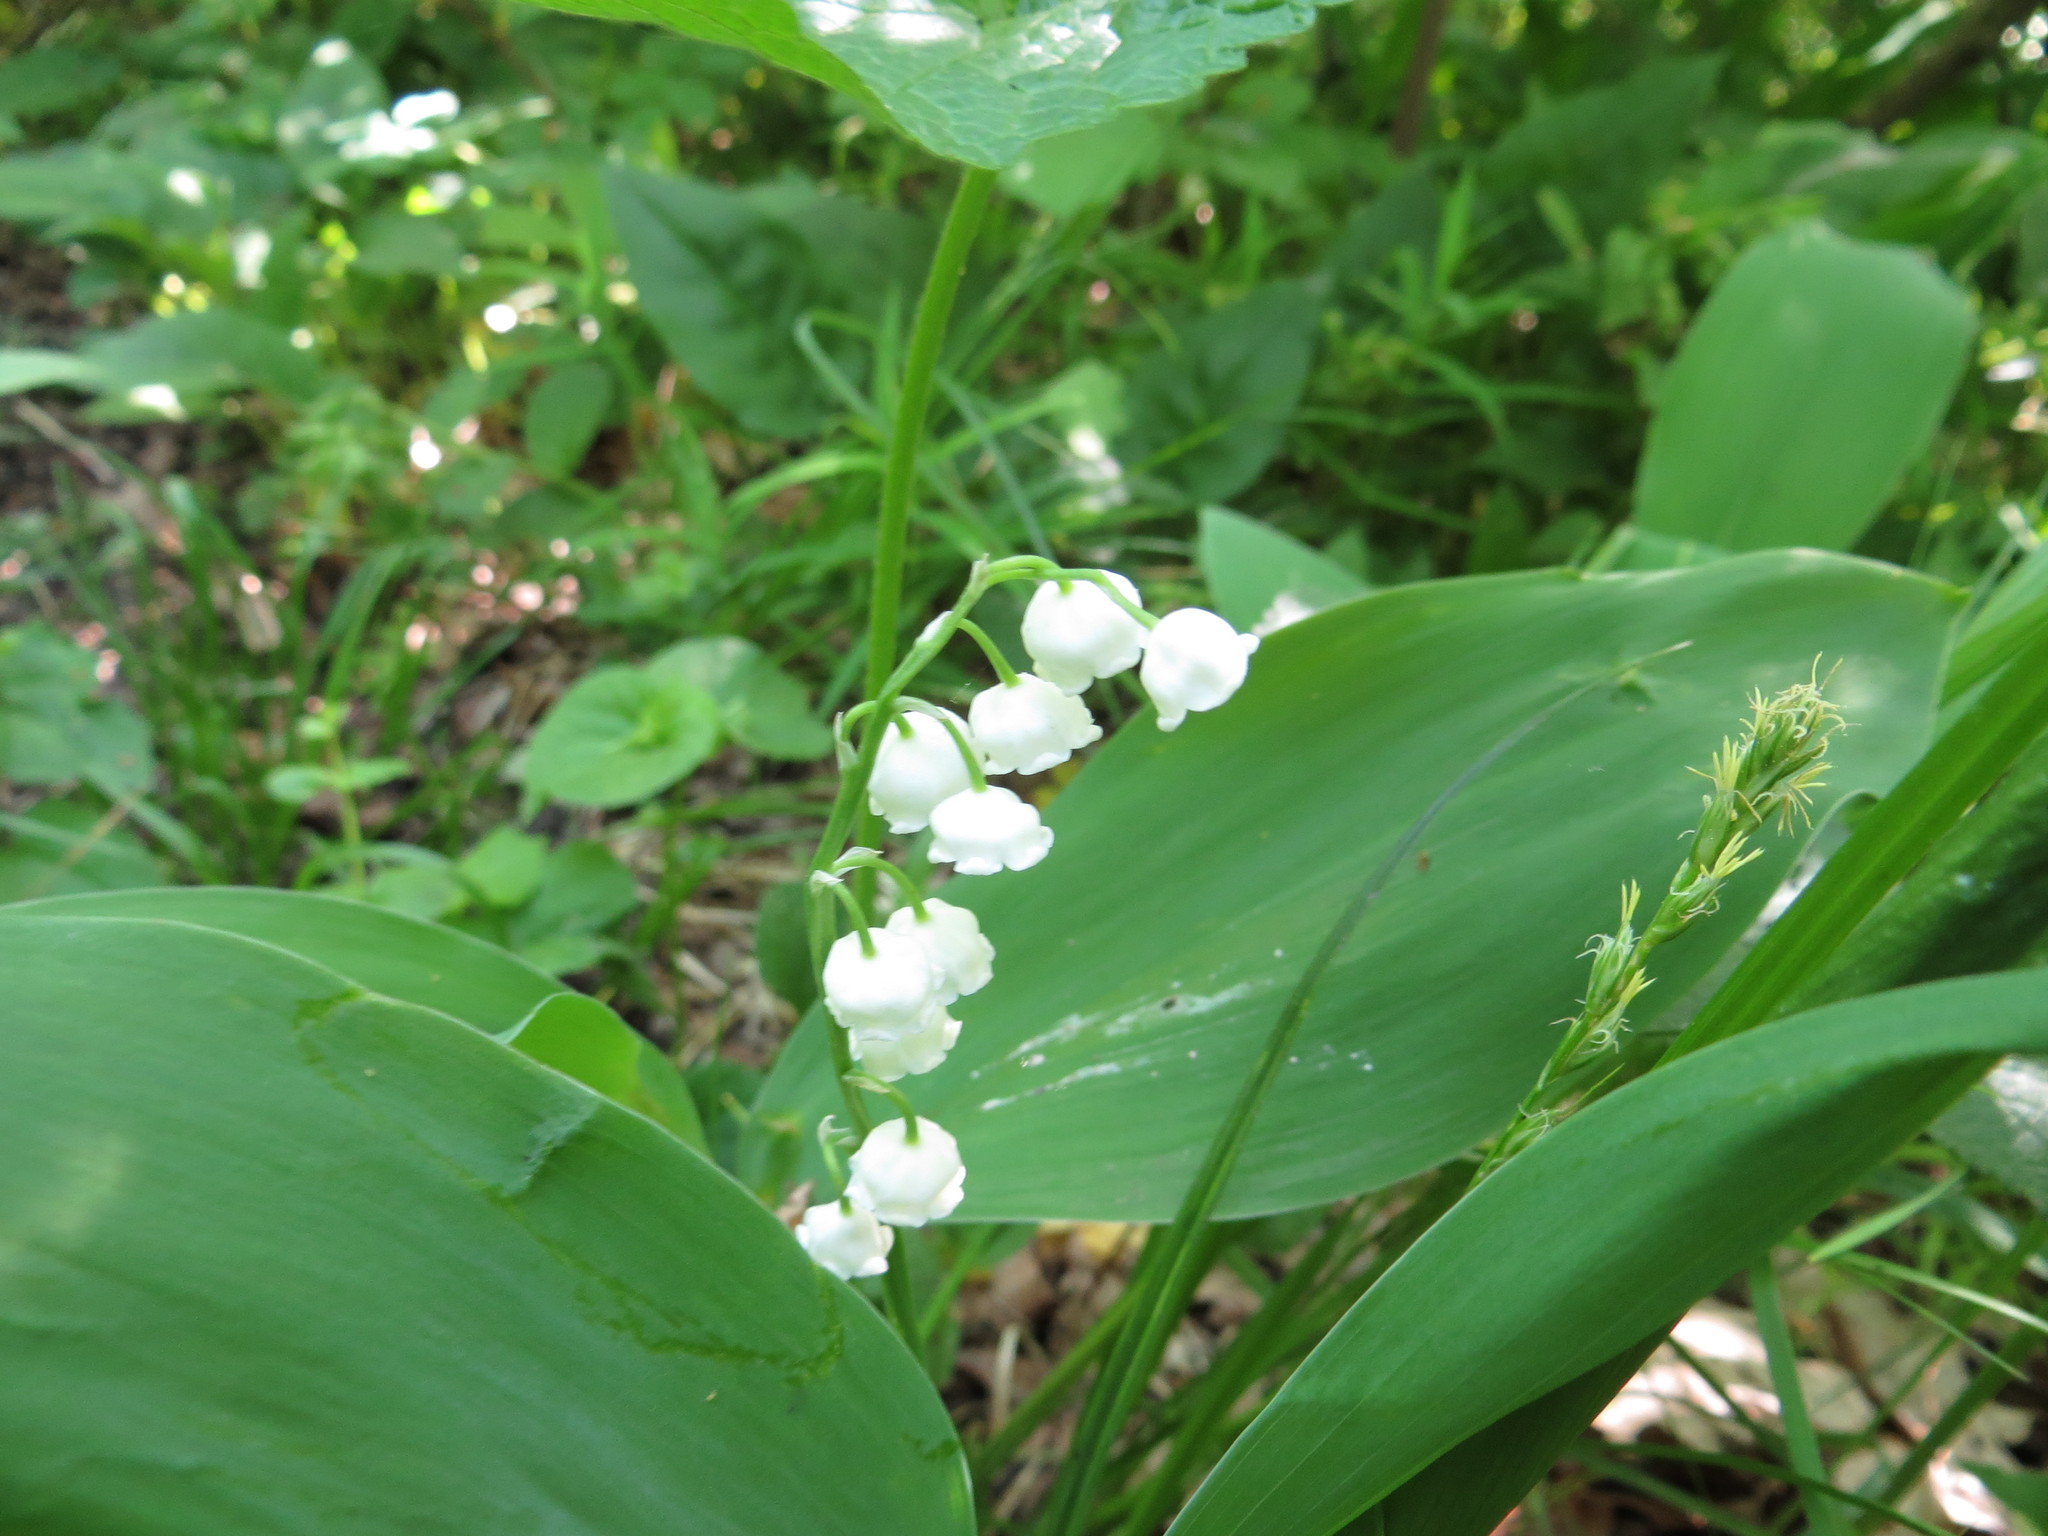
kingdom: Plantae
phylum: Tracheophyta
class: Liliopsida
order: Asparagales
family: Asparagaceae
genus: Convallaria
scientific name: Convallaria majalis
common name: Lily-of-the-valley
